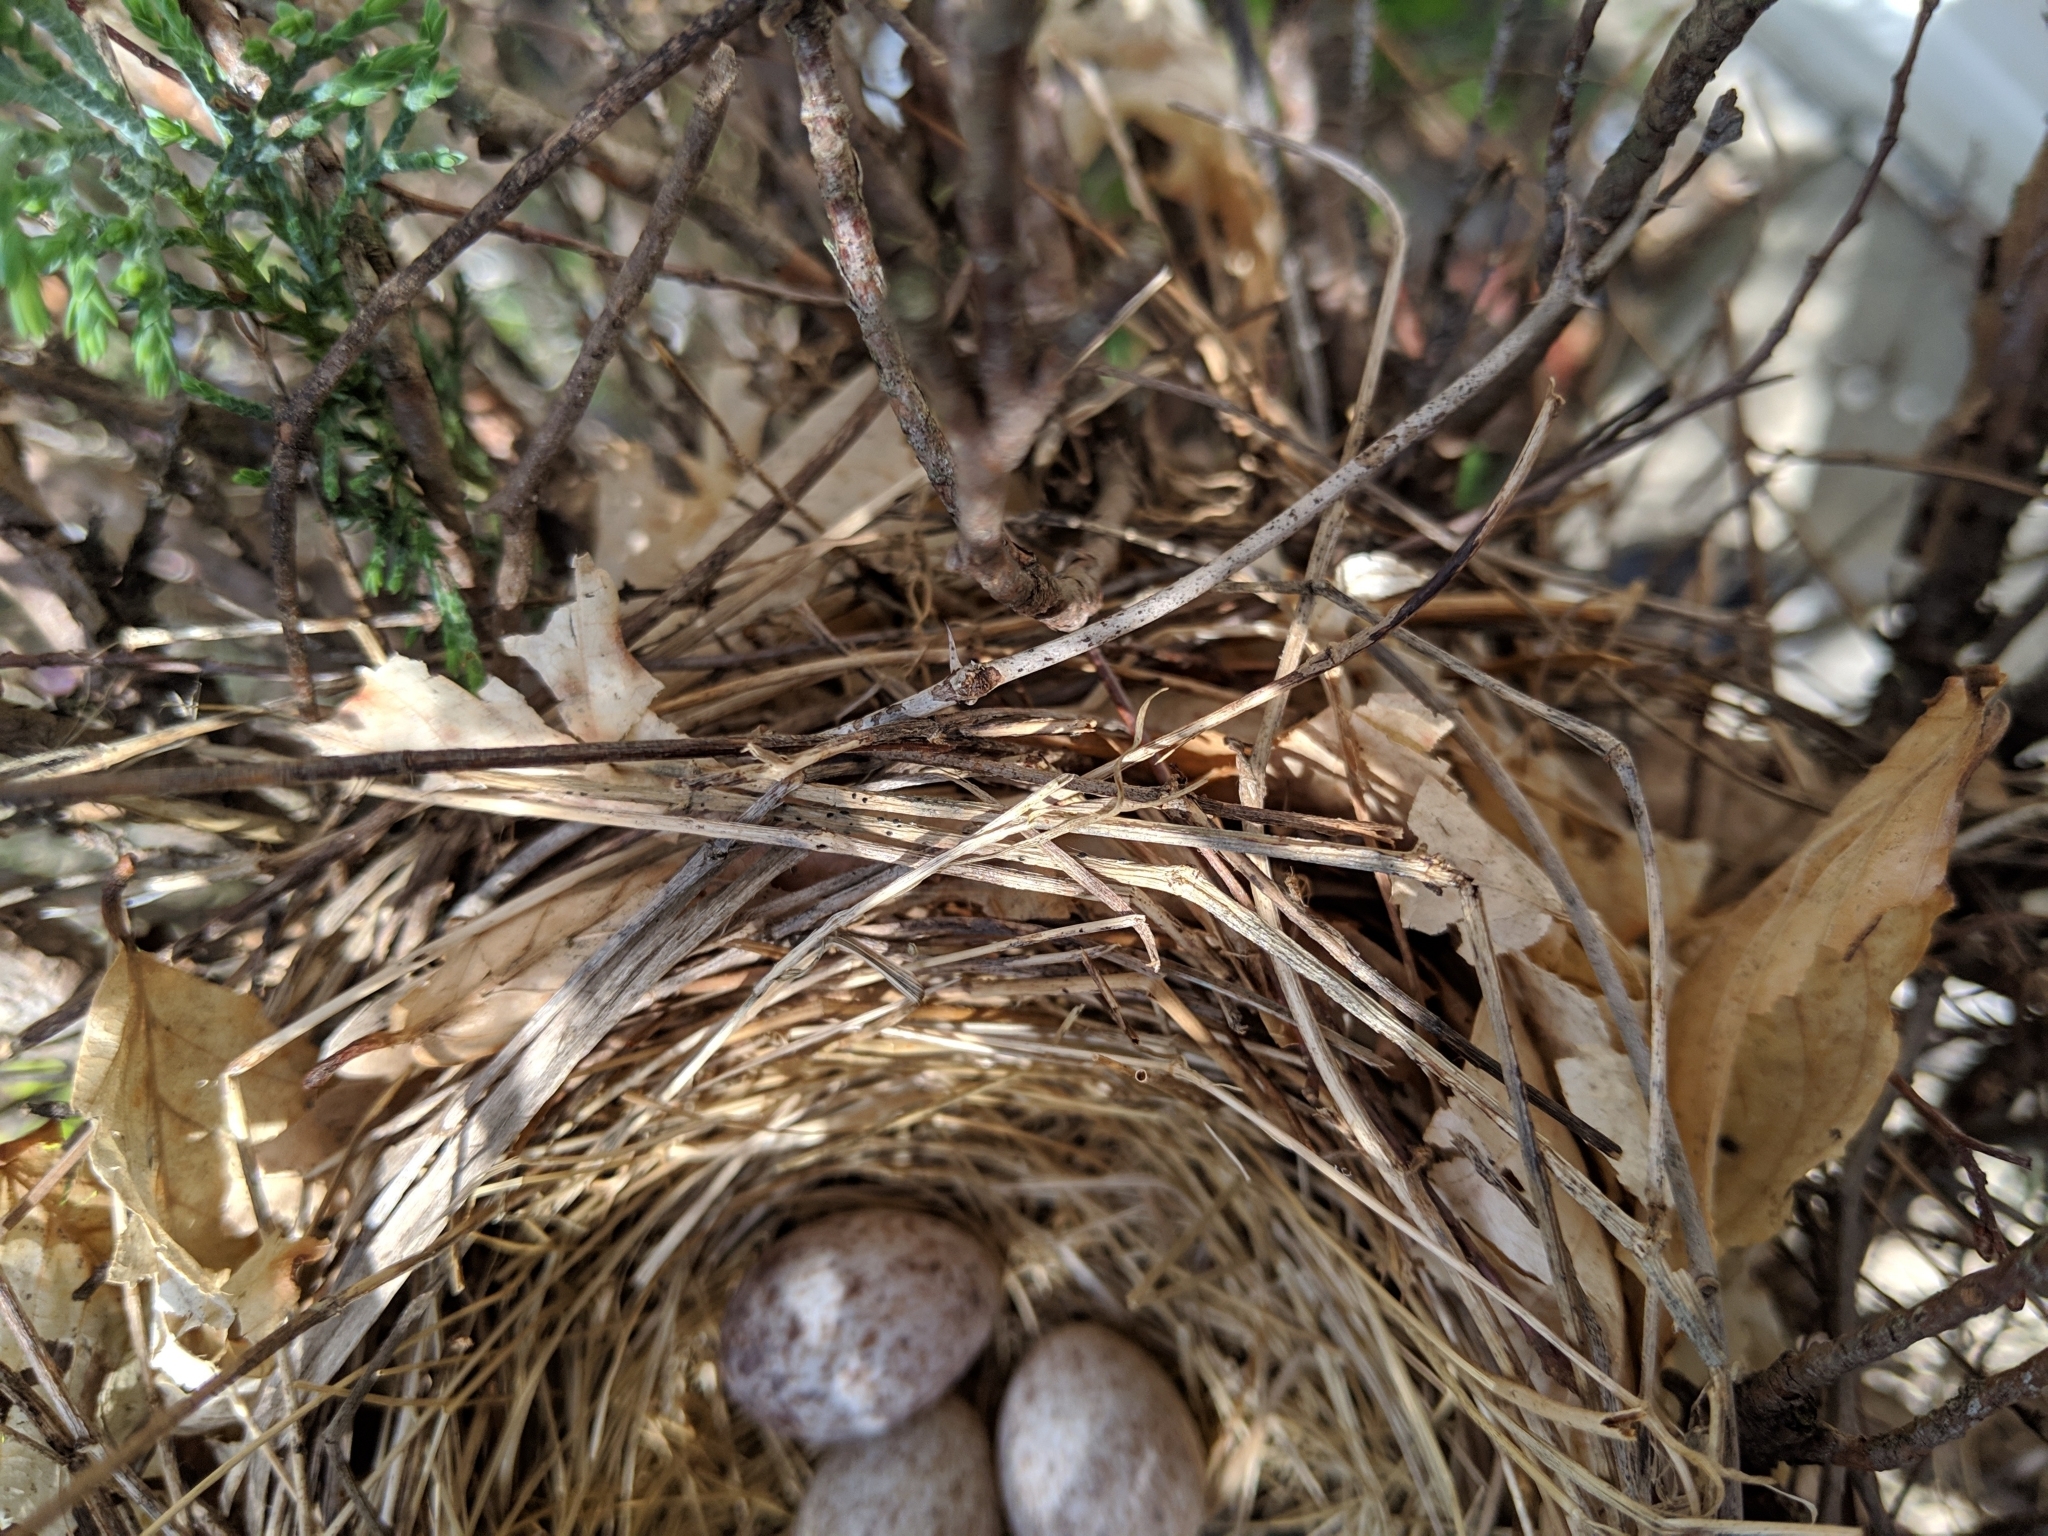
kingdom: Animalia
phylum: Chordata
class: Aves
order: Passeriformes
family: Cardinalidae
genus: Cardinalis
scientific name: Cardinalis cardinalis
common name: Northern cardinal
